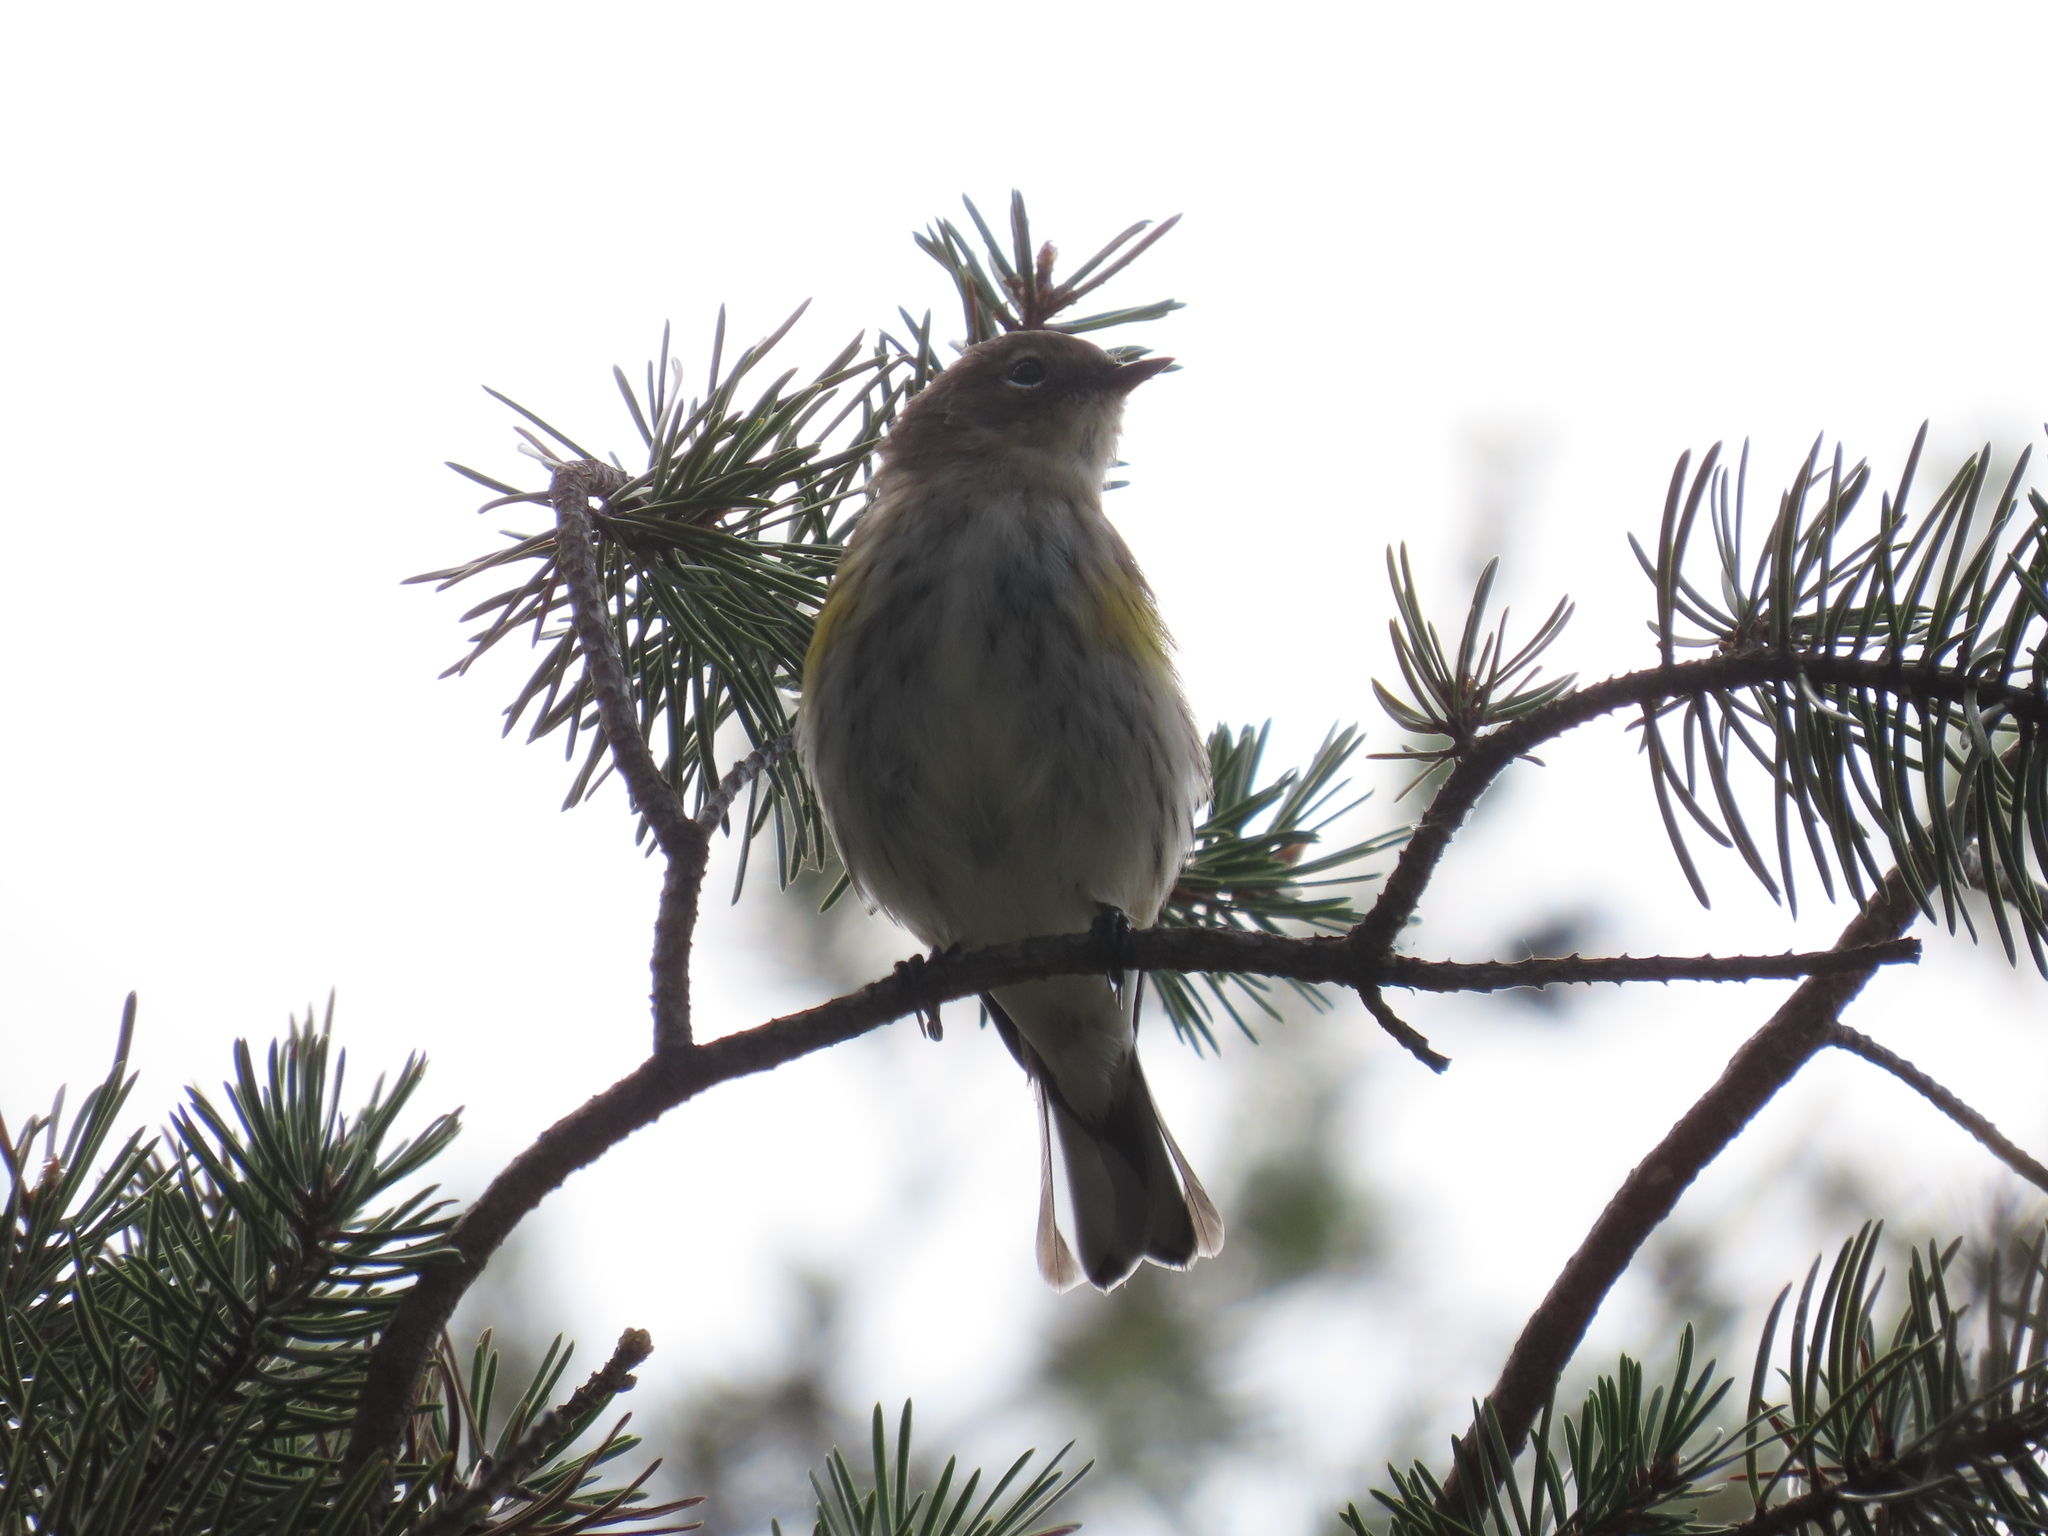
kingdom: Animalia
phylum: Chordata
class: Aves
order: Passeriformes
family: Parulidae
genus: Setophaga
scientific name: Setophaga coronata
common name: Myrtle warbler
